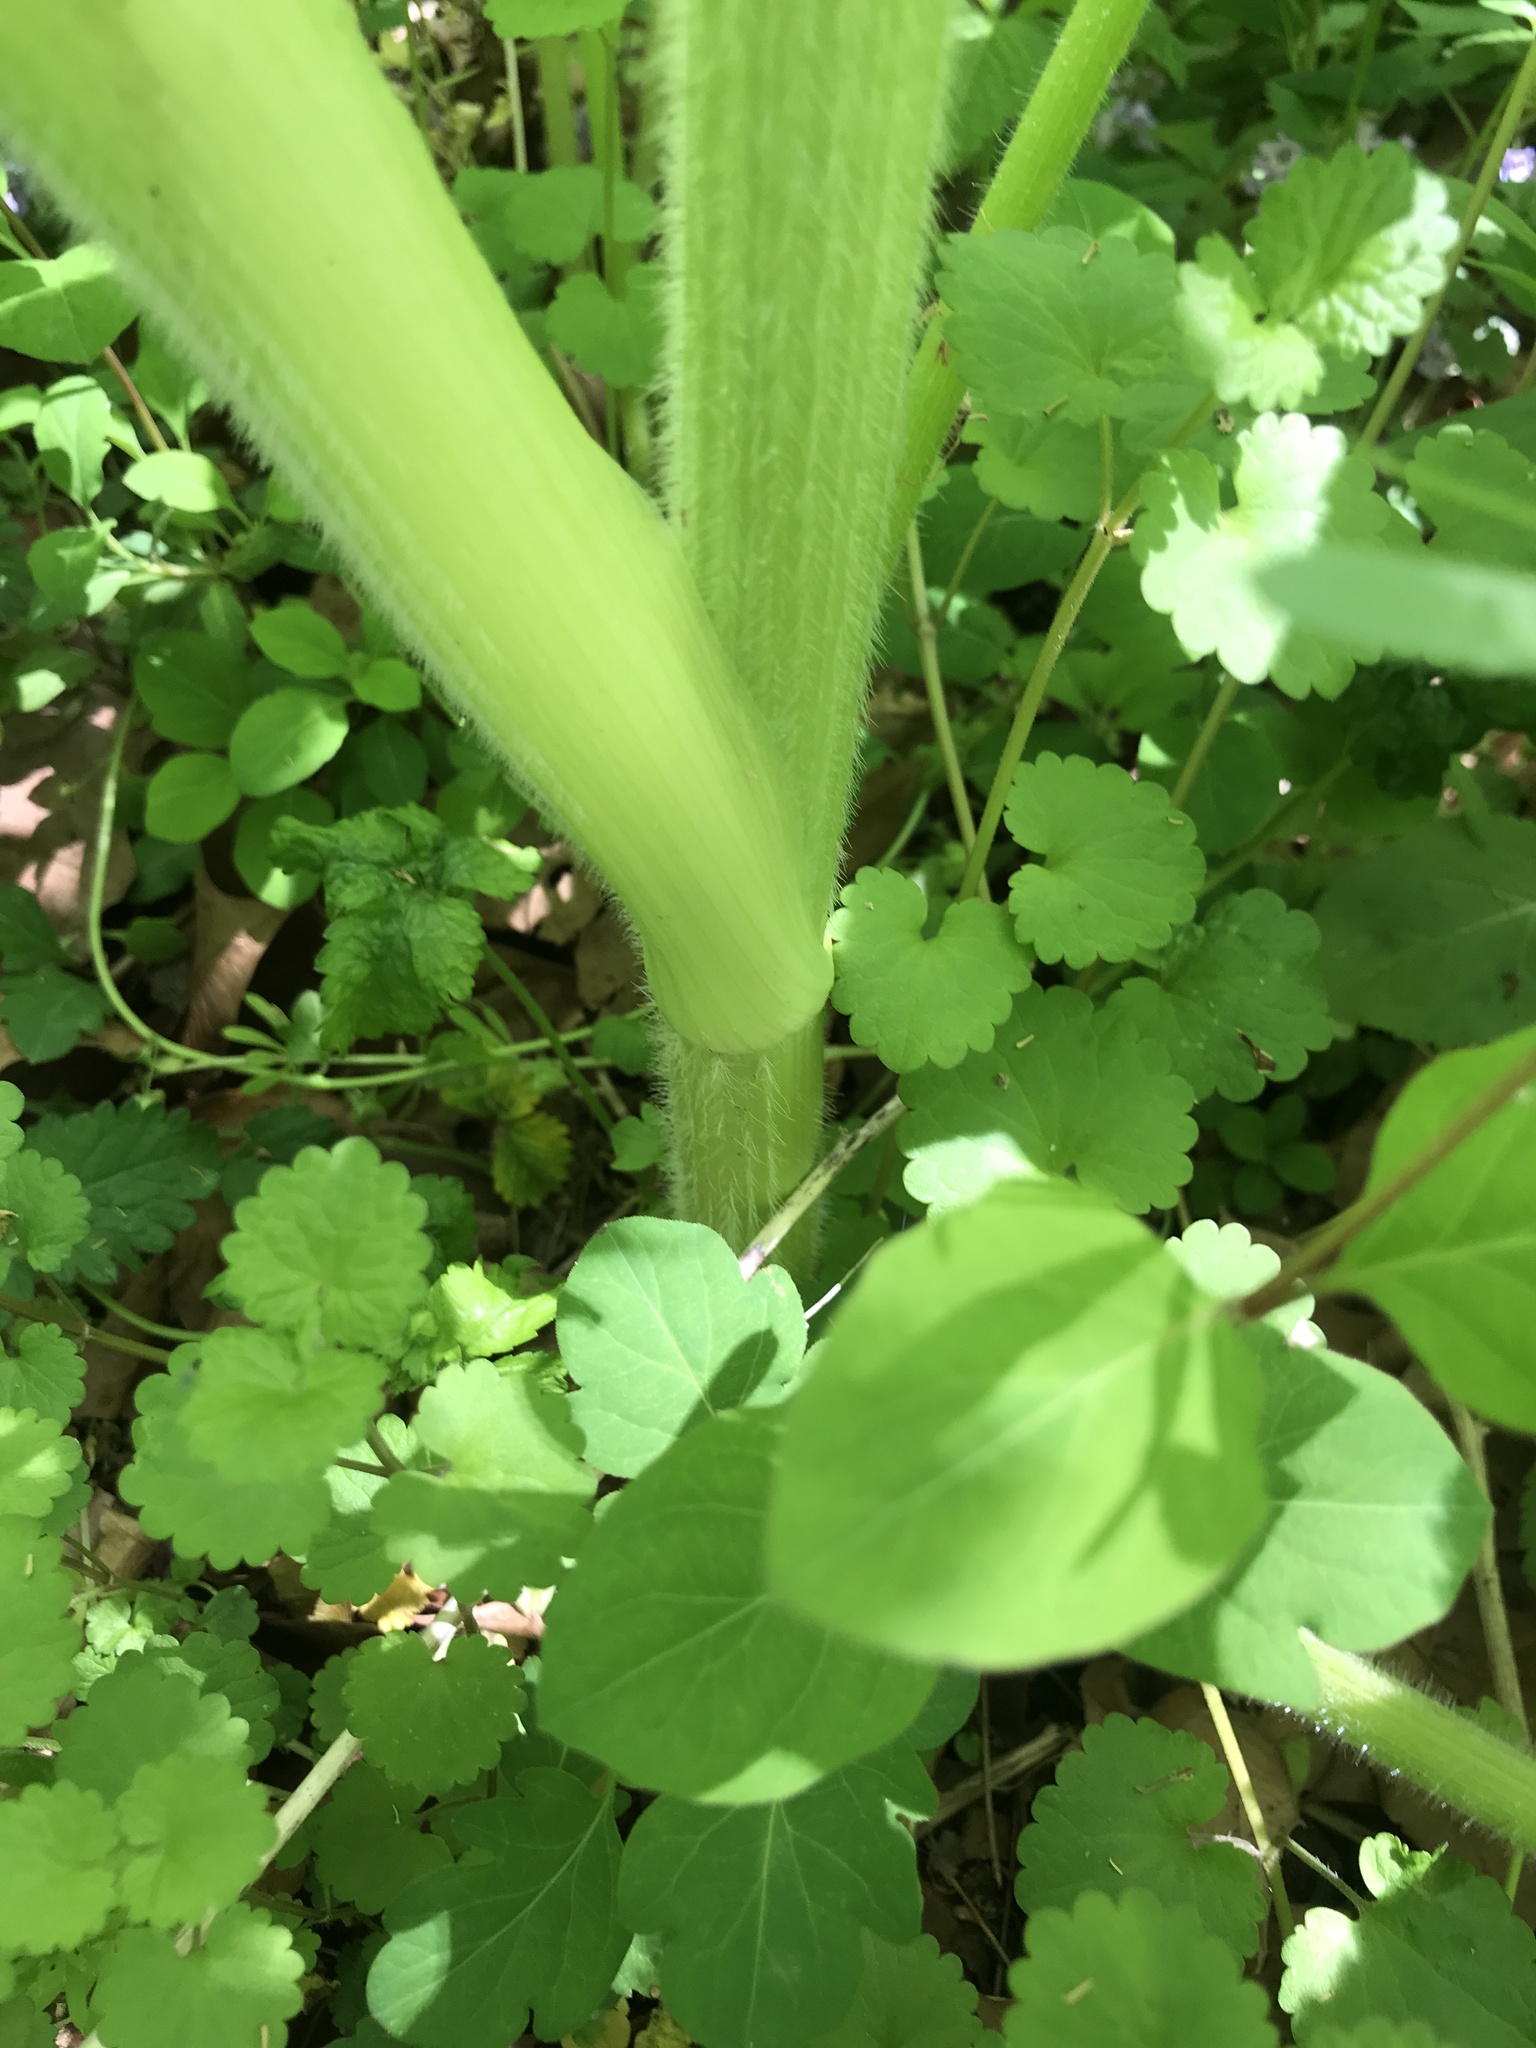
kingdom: Plantae
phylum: Tracheophyta
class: Magnoliopsida
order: Apiales
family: Apiaceae
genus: Heracleum
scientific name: Heracleum maximum
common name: American cow parsnip
